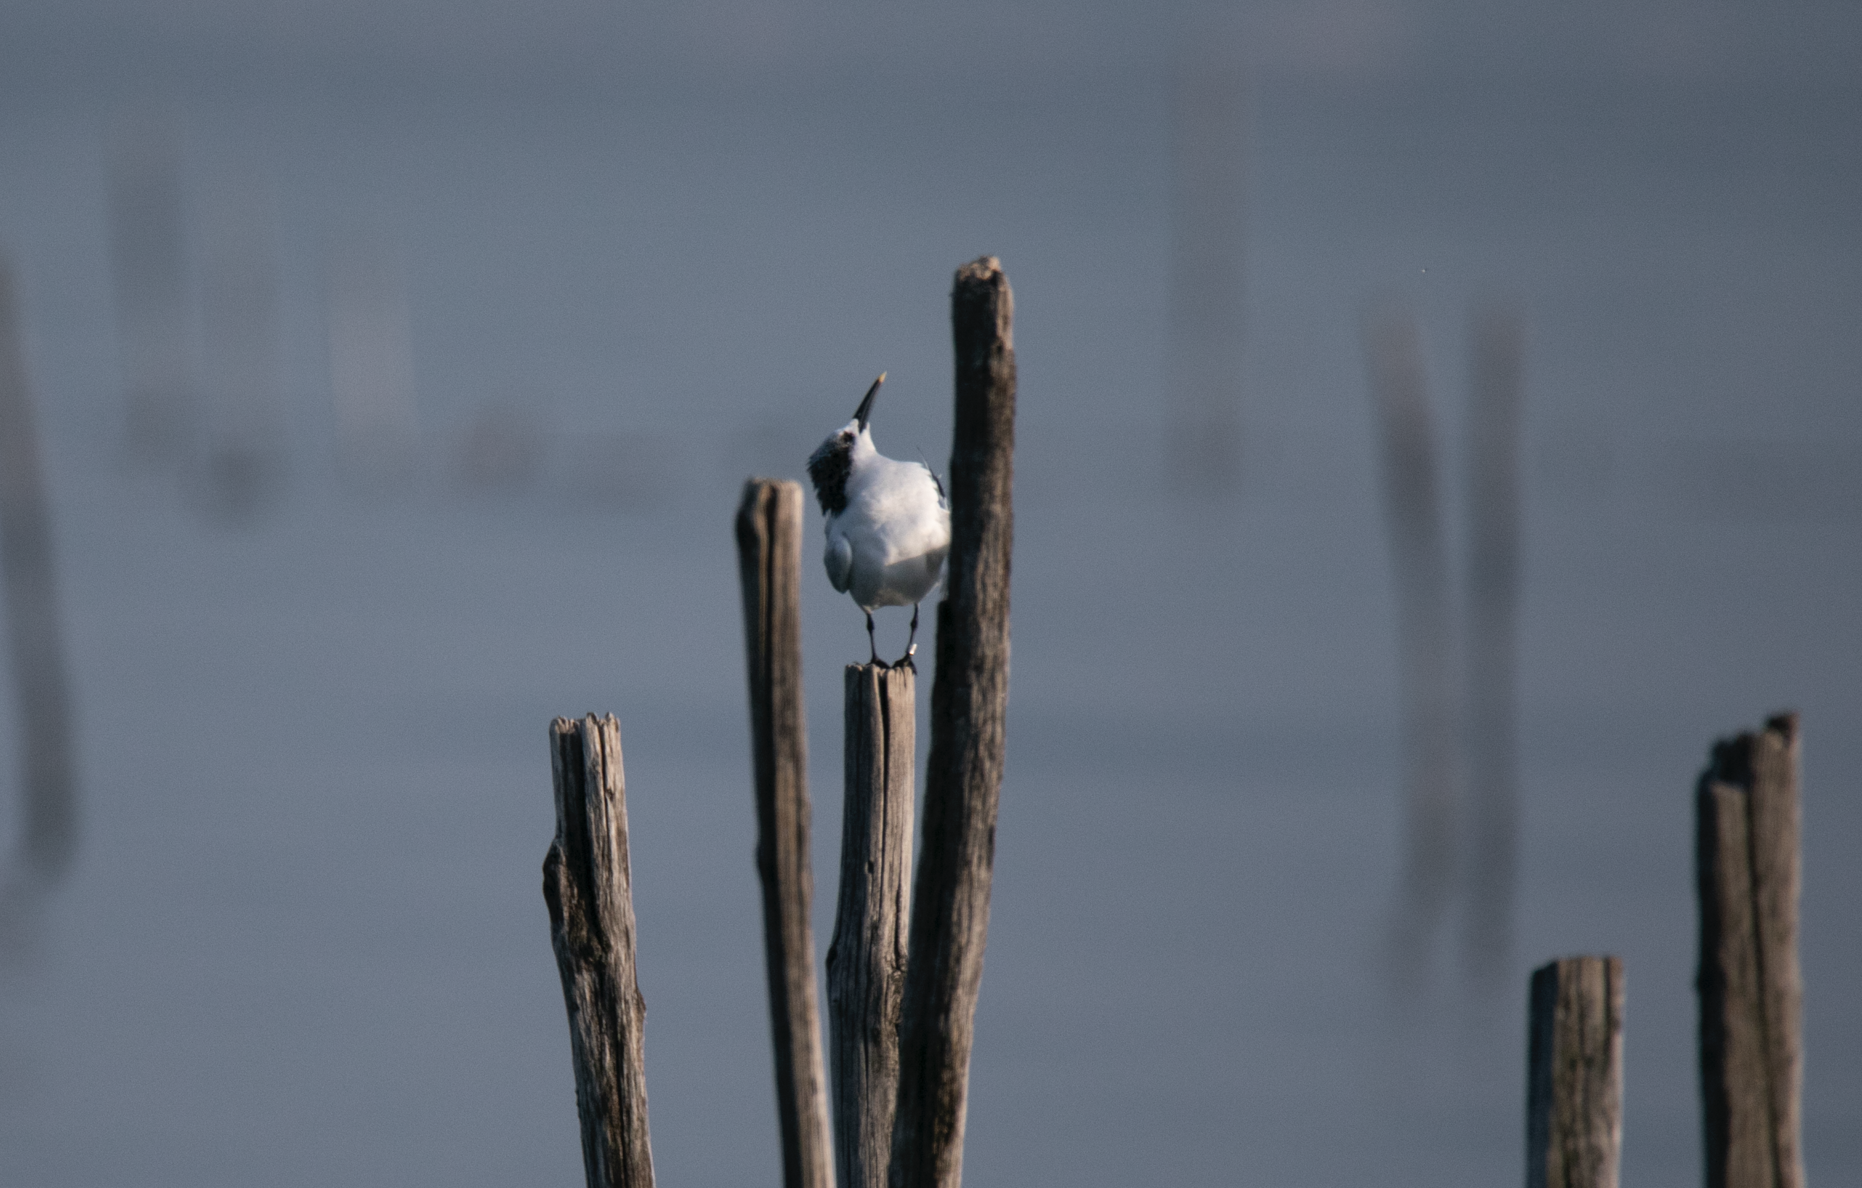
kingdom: Animalia
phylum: Chordata
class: Aves
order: Charadriiformes
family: Laridae
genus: Thalasseus
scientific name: Thalasseus sandvicensis
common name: Sandwich tern
